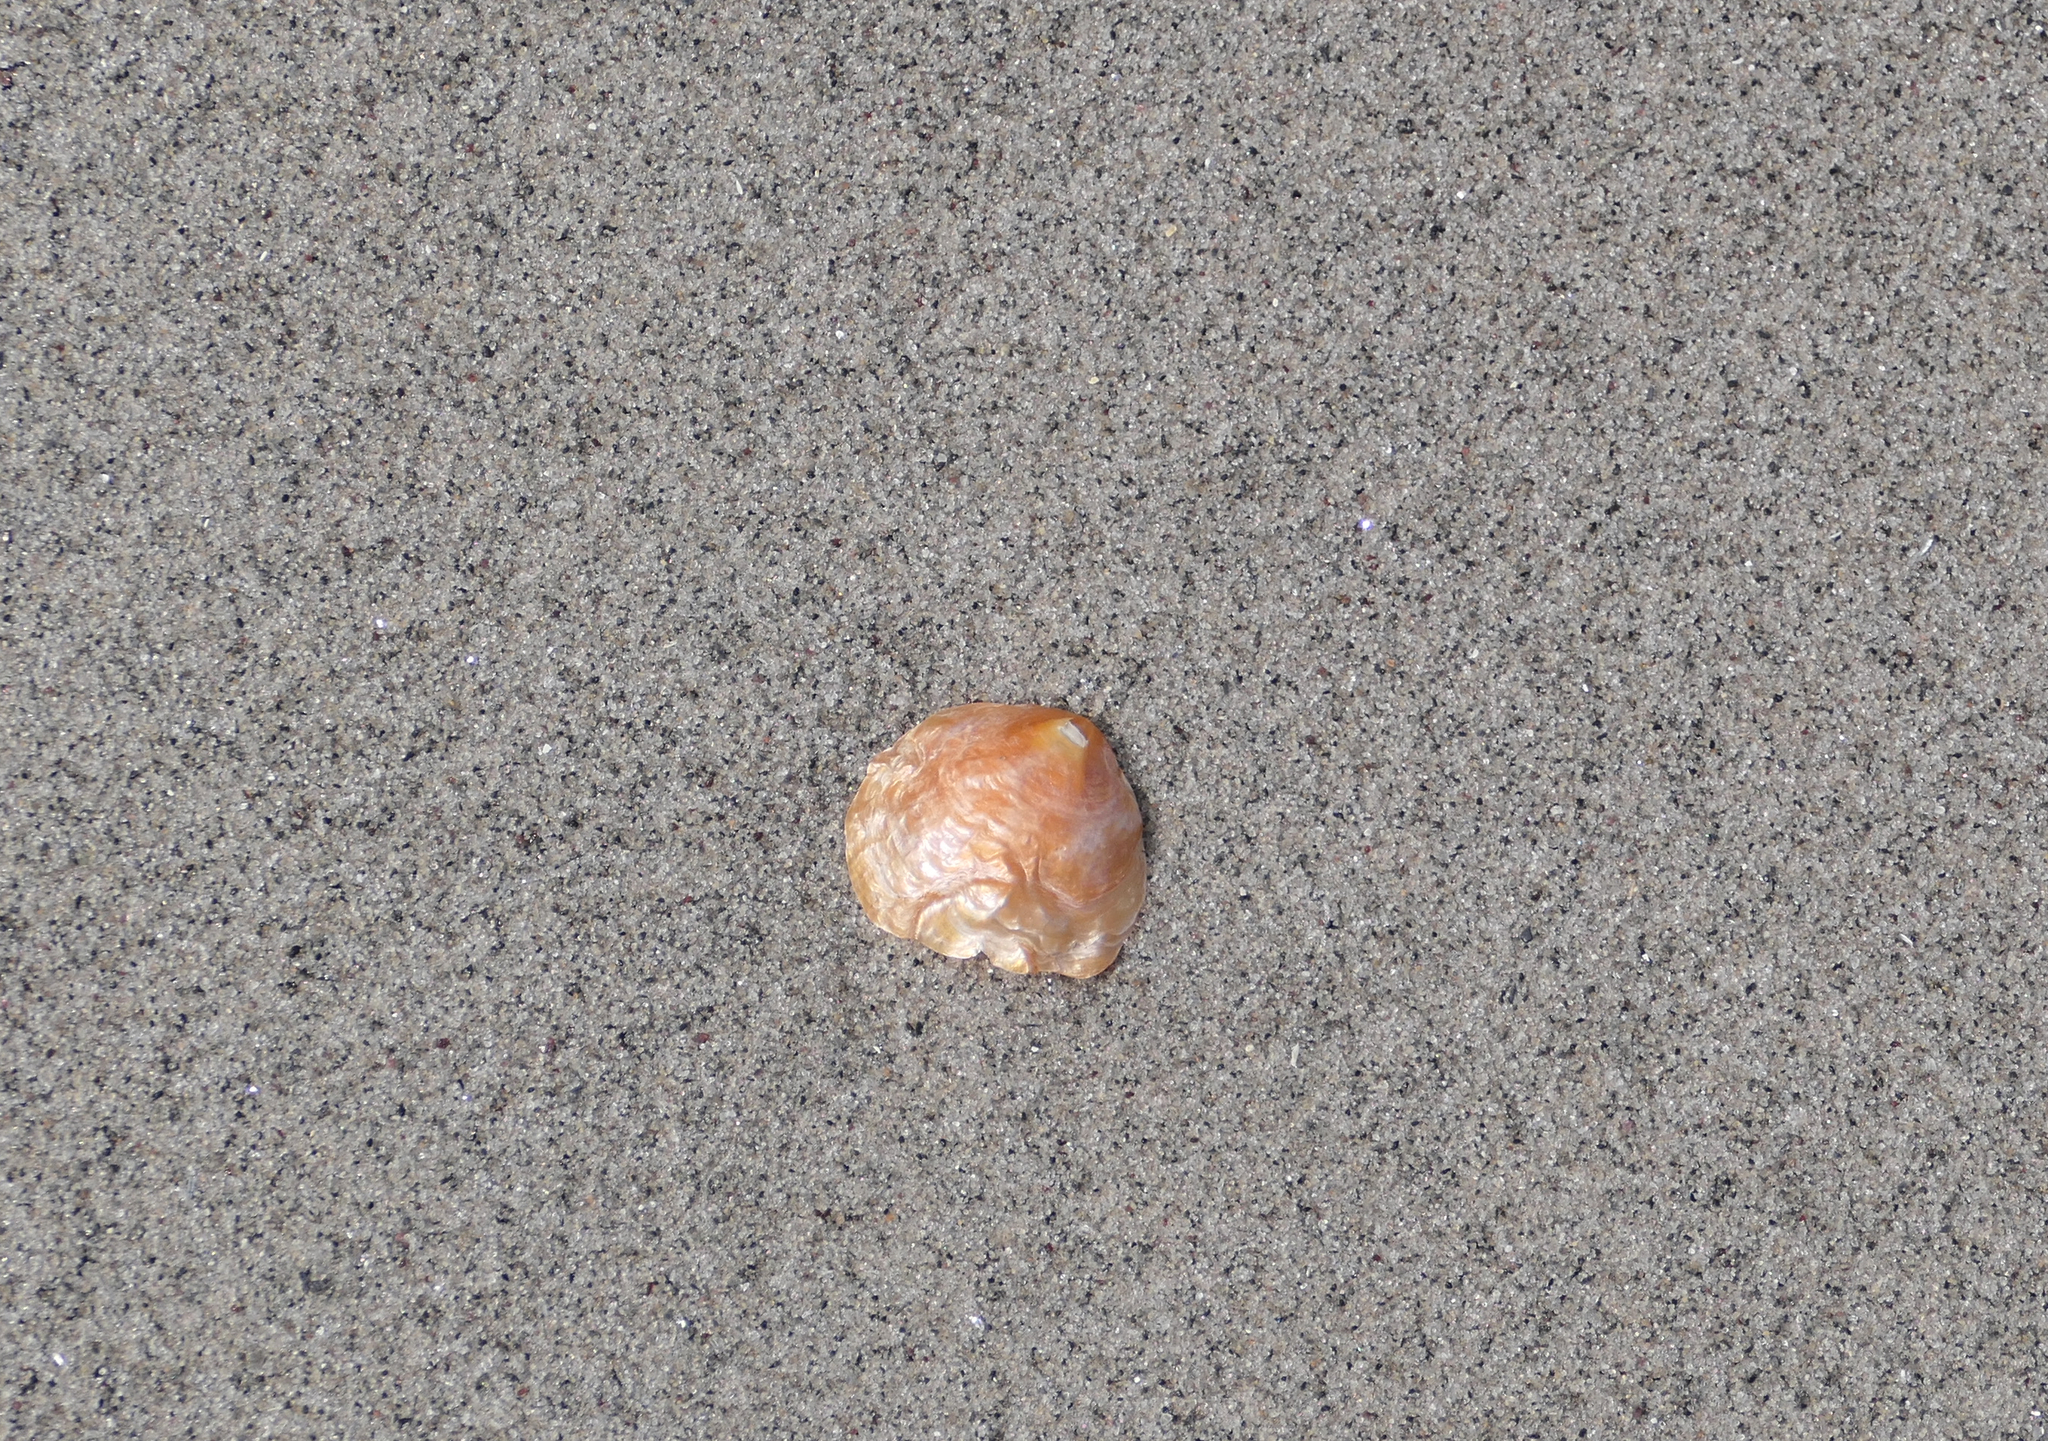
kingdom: Animalia
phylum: Mollusca
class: Bivalvia
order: Pectinida
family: Anomiidae
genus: Anomia
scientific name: Anomia simplex
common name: Common jingle shell
